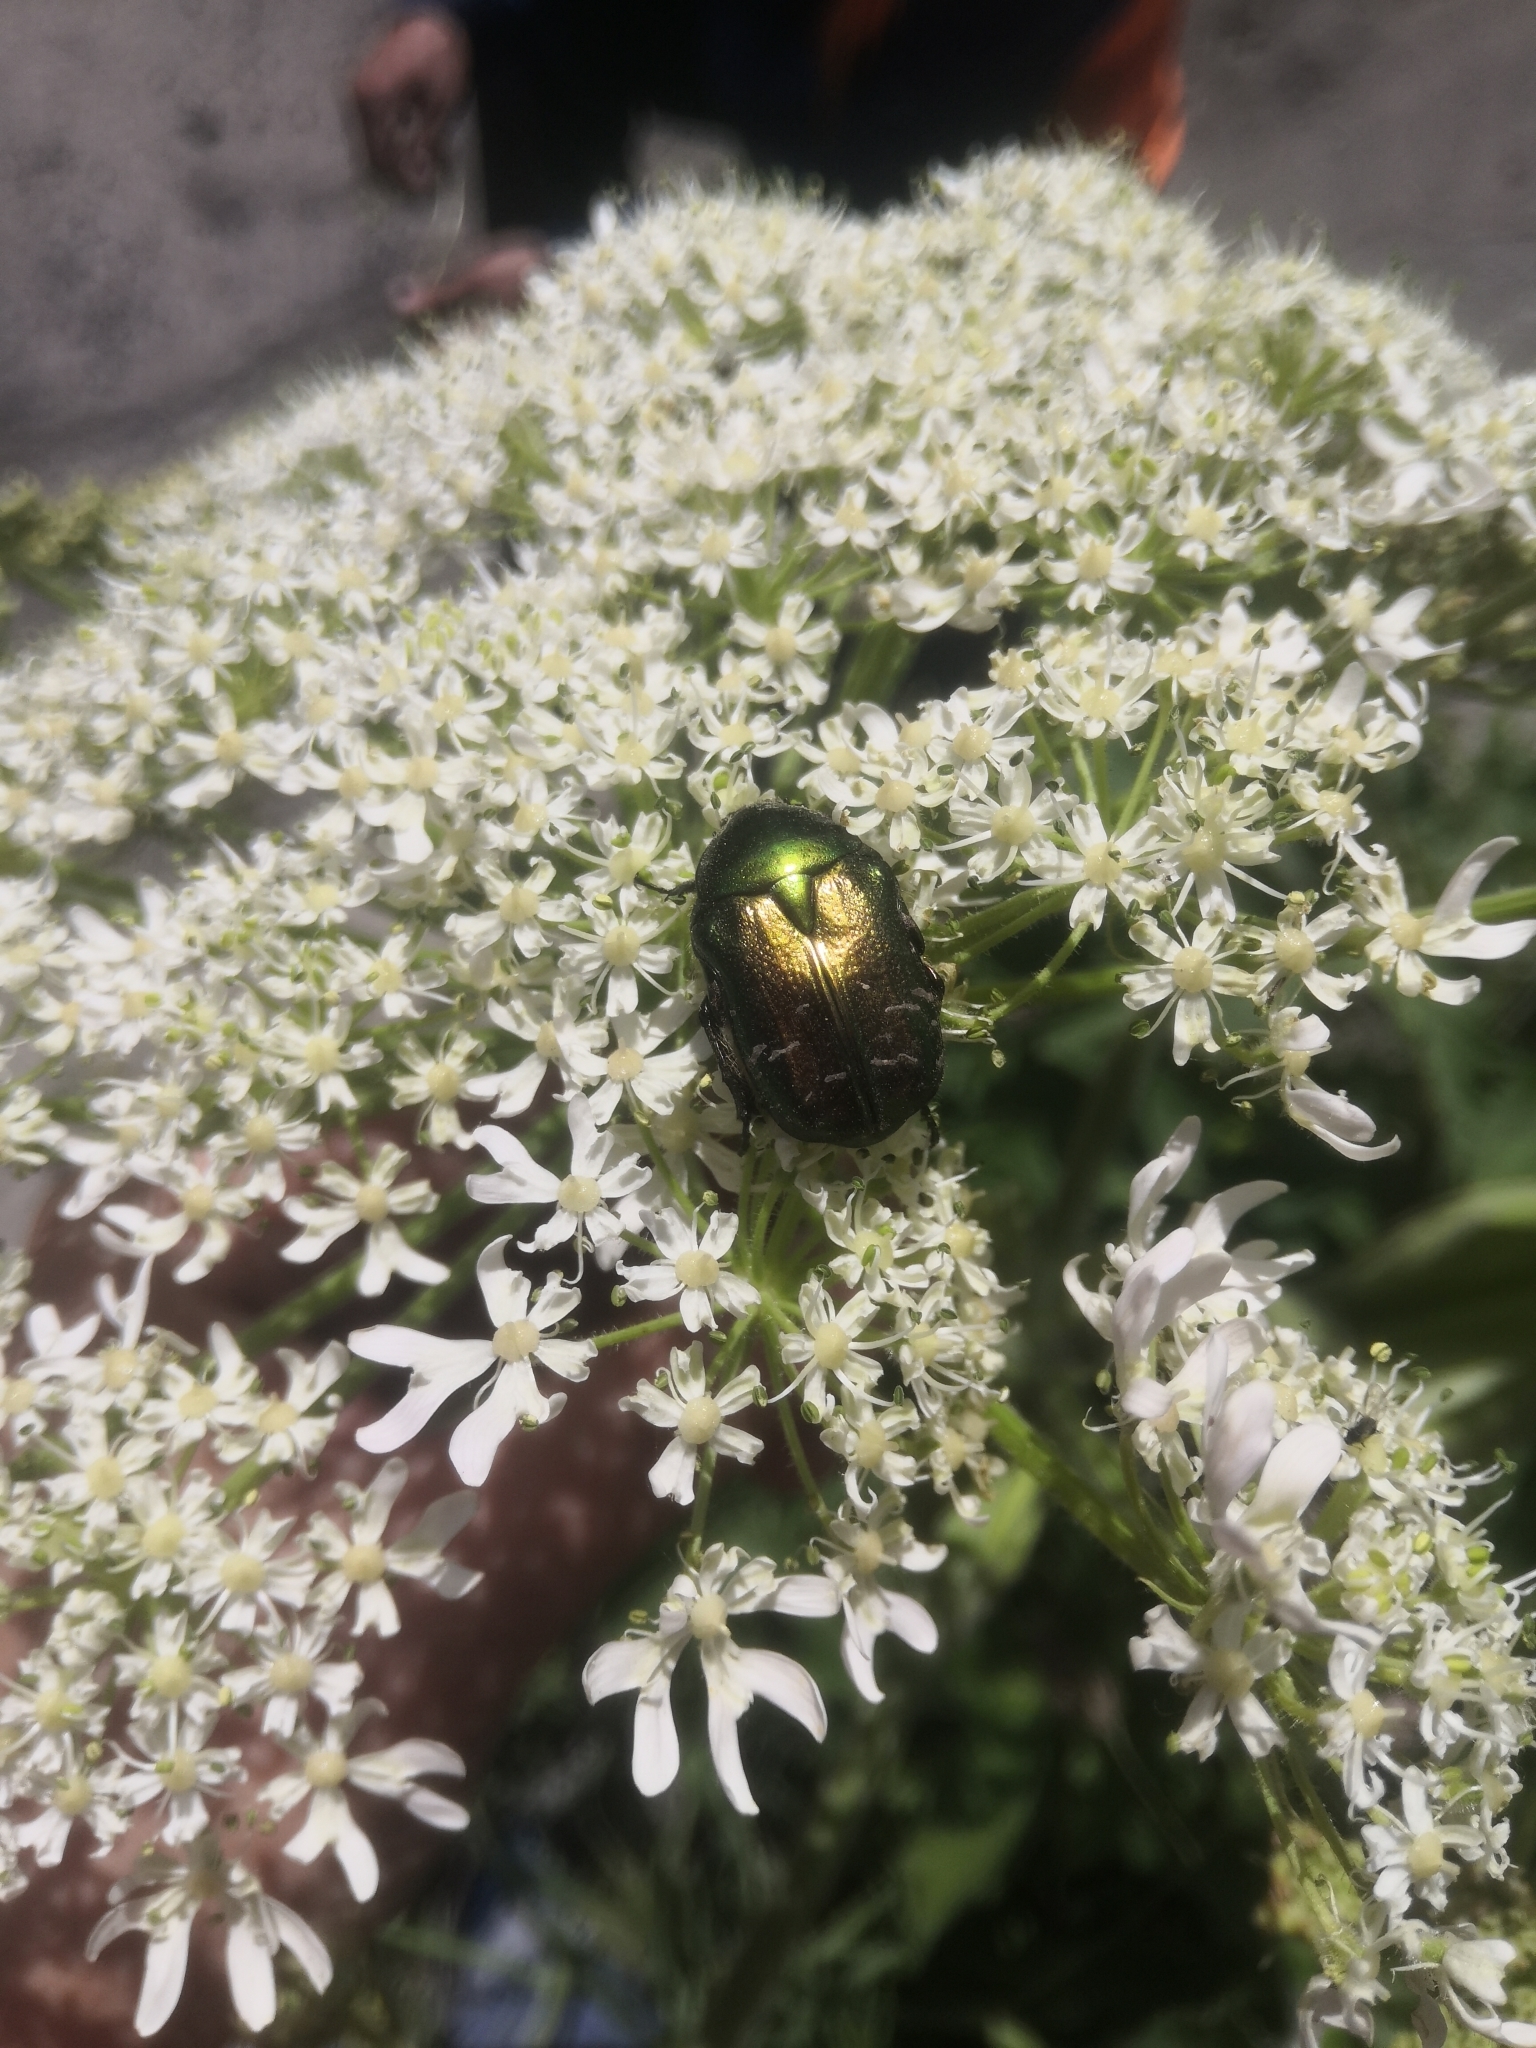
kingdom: Animalia
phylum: Arthropoda
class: Insecta
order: Coleoptera
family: Scarabaeidae
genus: Cetonia
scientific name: Cetonia aurata
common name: Rose chafer
